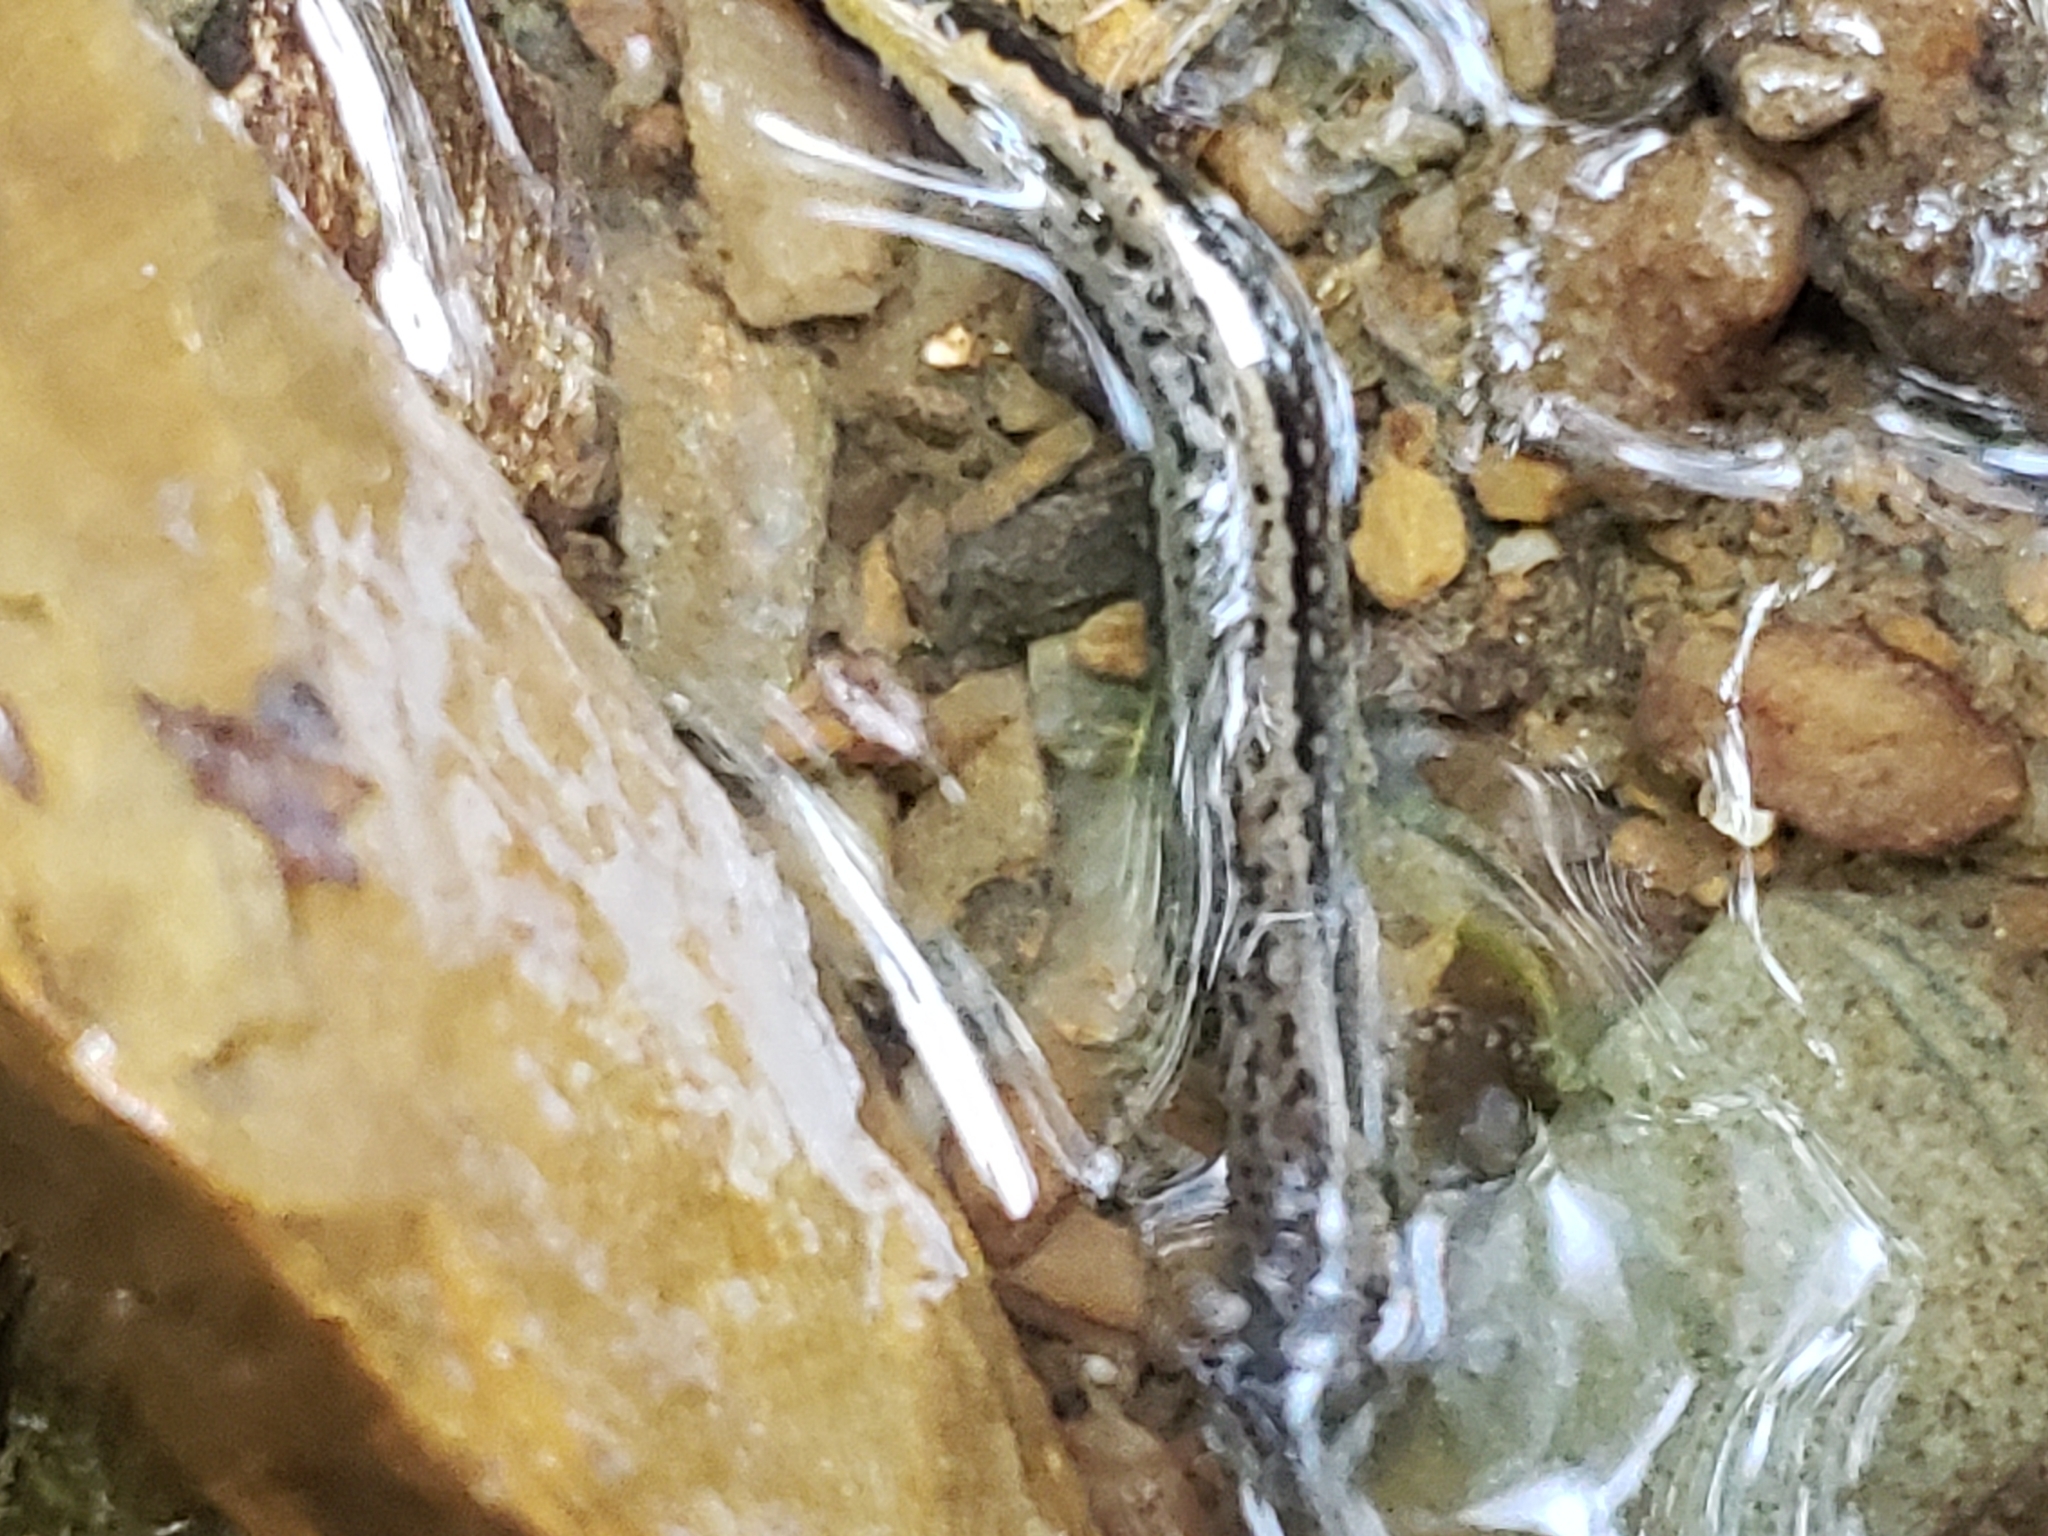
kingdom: Animalia
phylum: Chordata
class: Amphibia
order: Caudata
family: Plethodontidae
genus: Eurycea
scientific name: Eurycea bislineata
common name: Northern two-lined salamander
